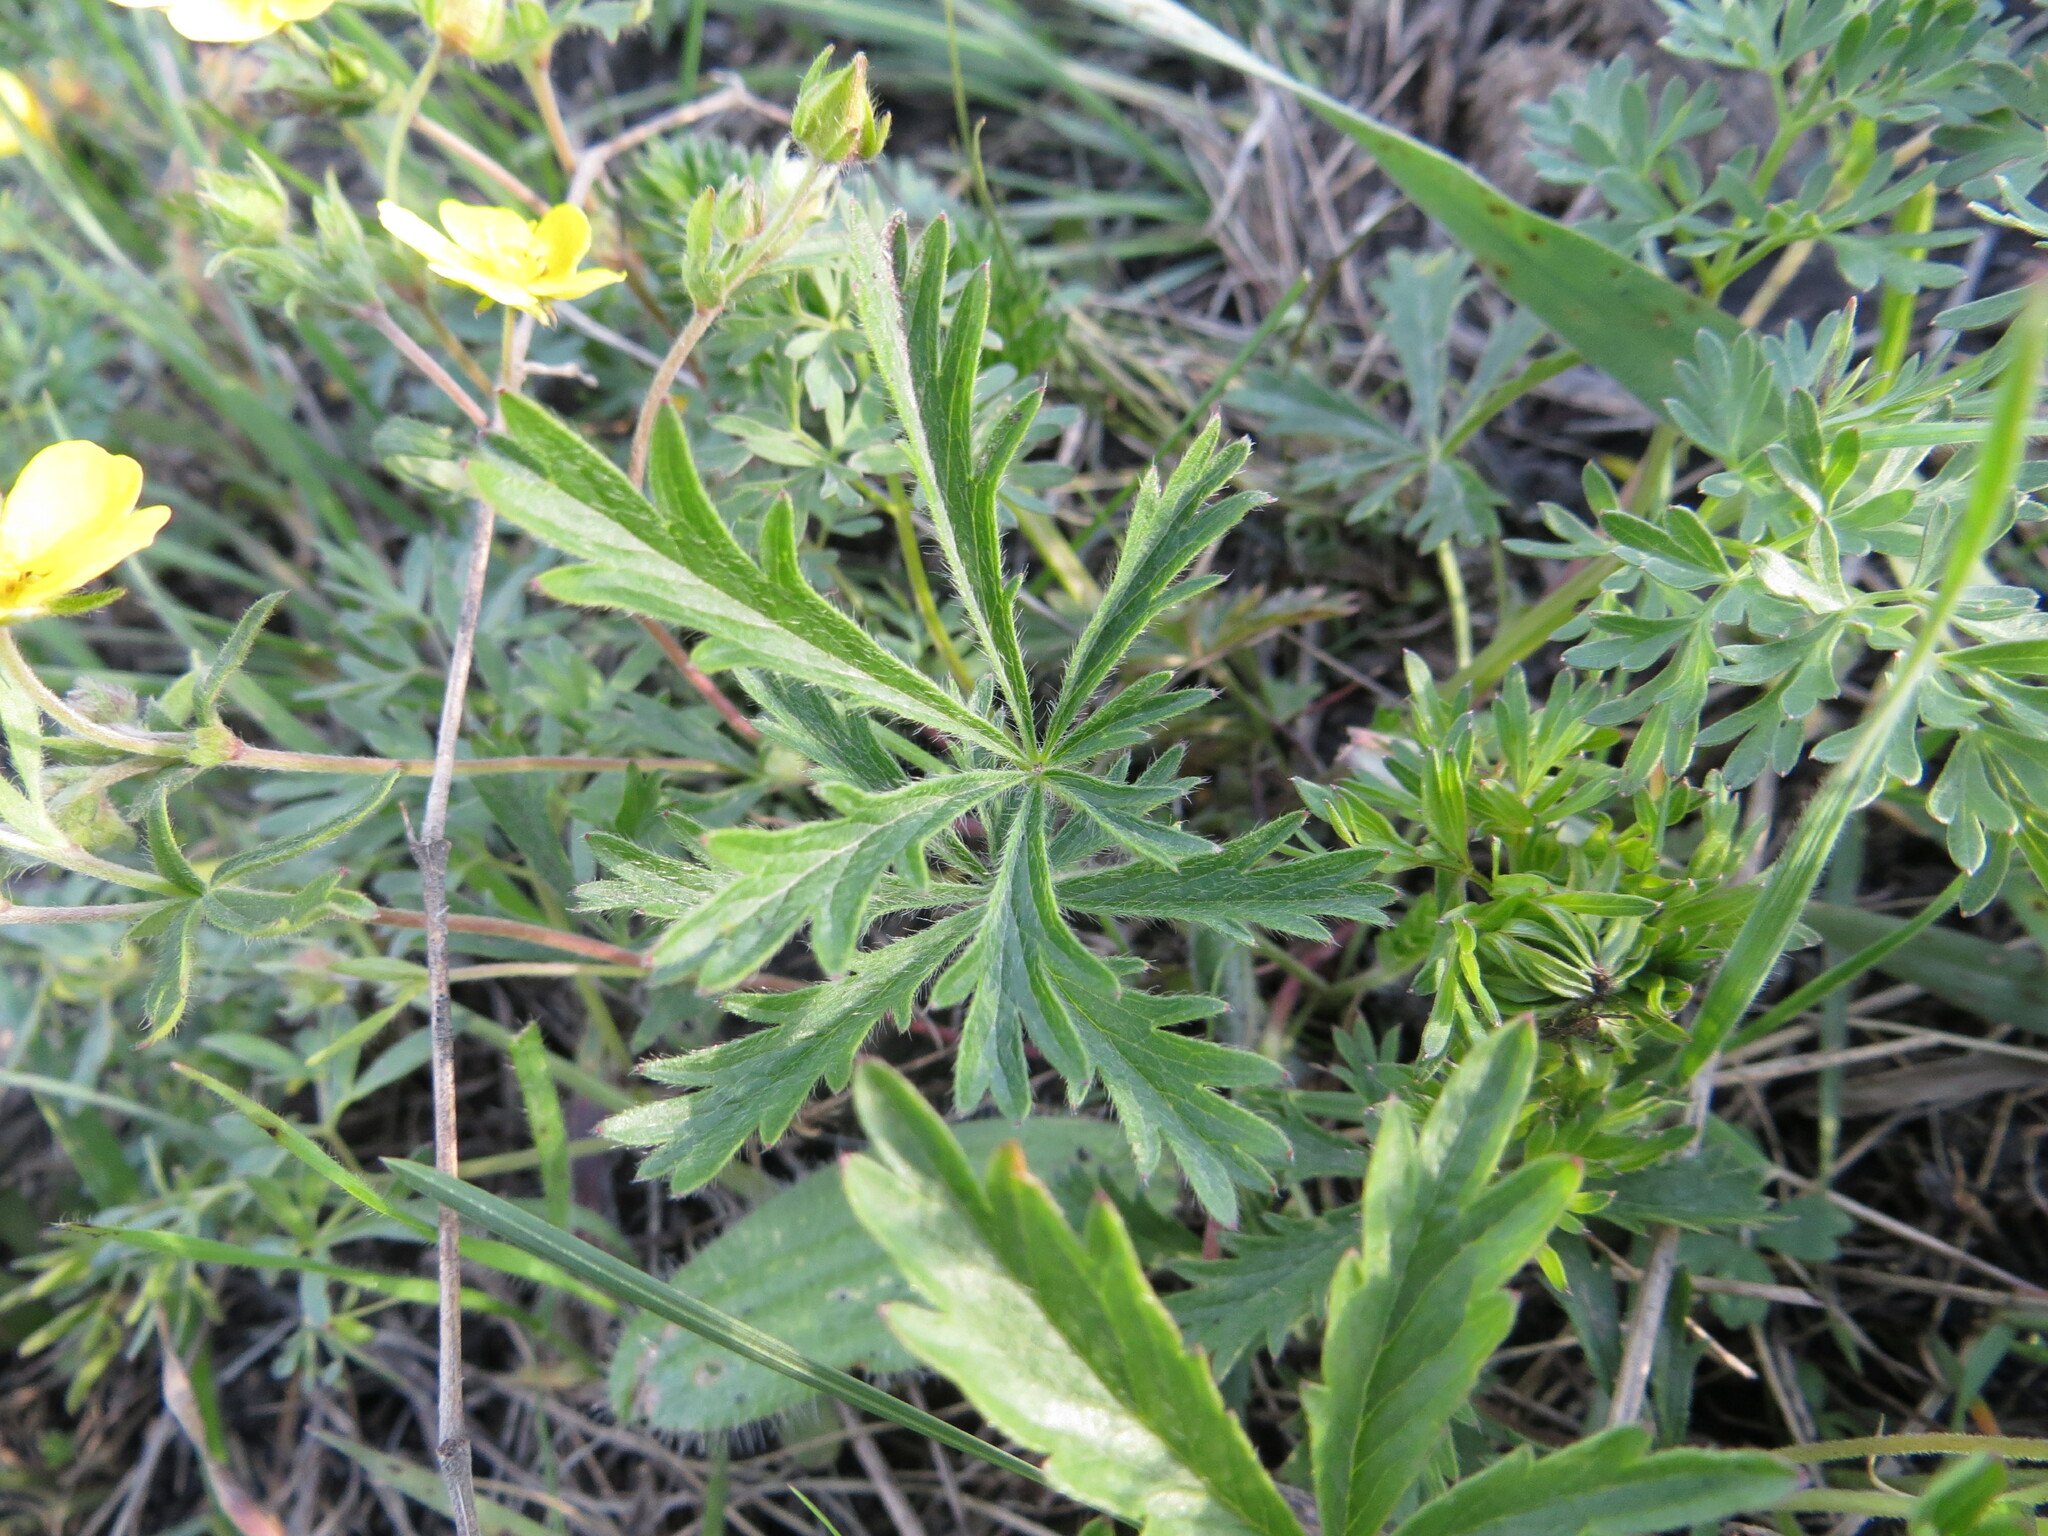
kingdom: Plantae
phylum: Tracheophyta
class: Magnoliopsida
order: Rosales
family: Rosaceae
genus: Potentilla
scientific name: Potentilla humifusa
